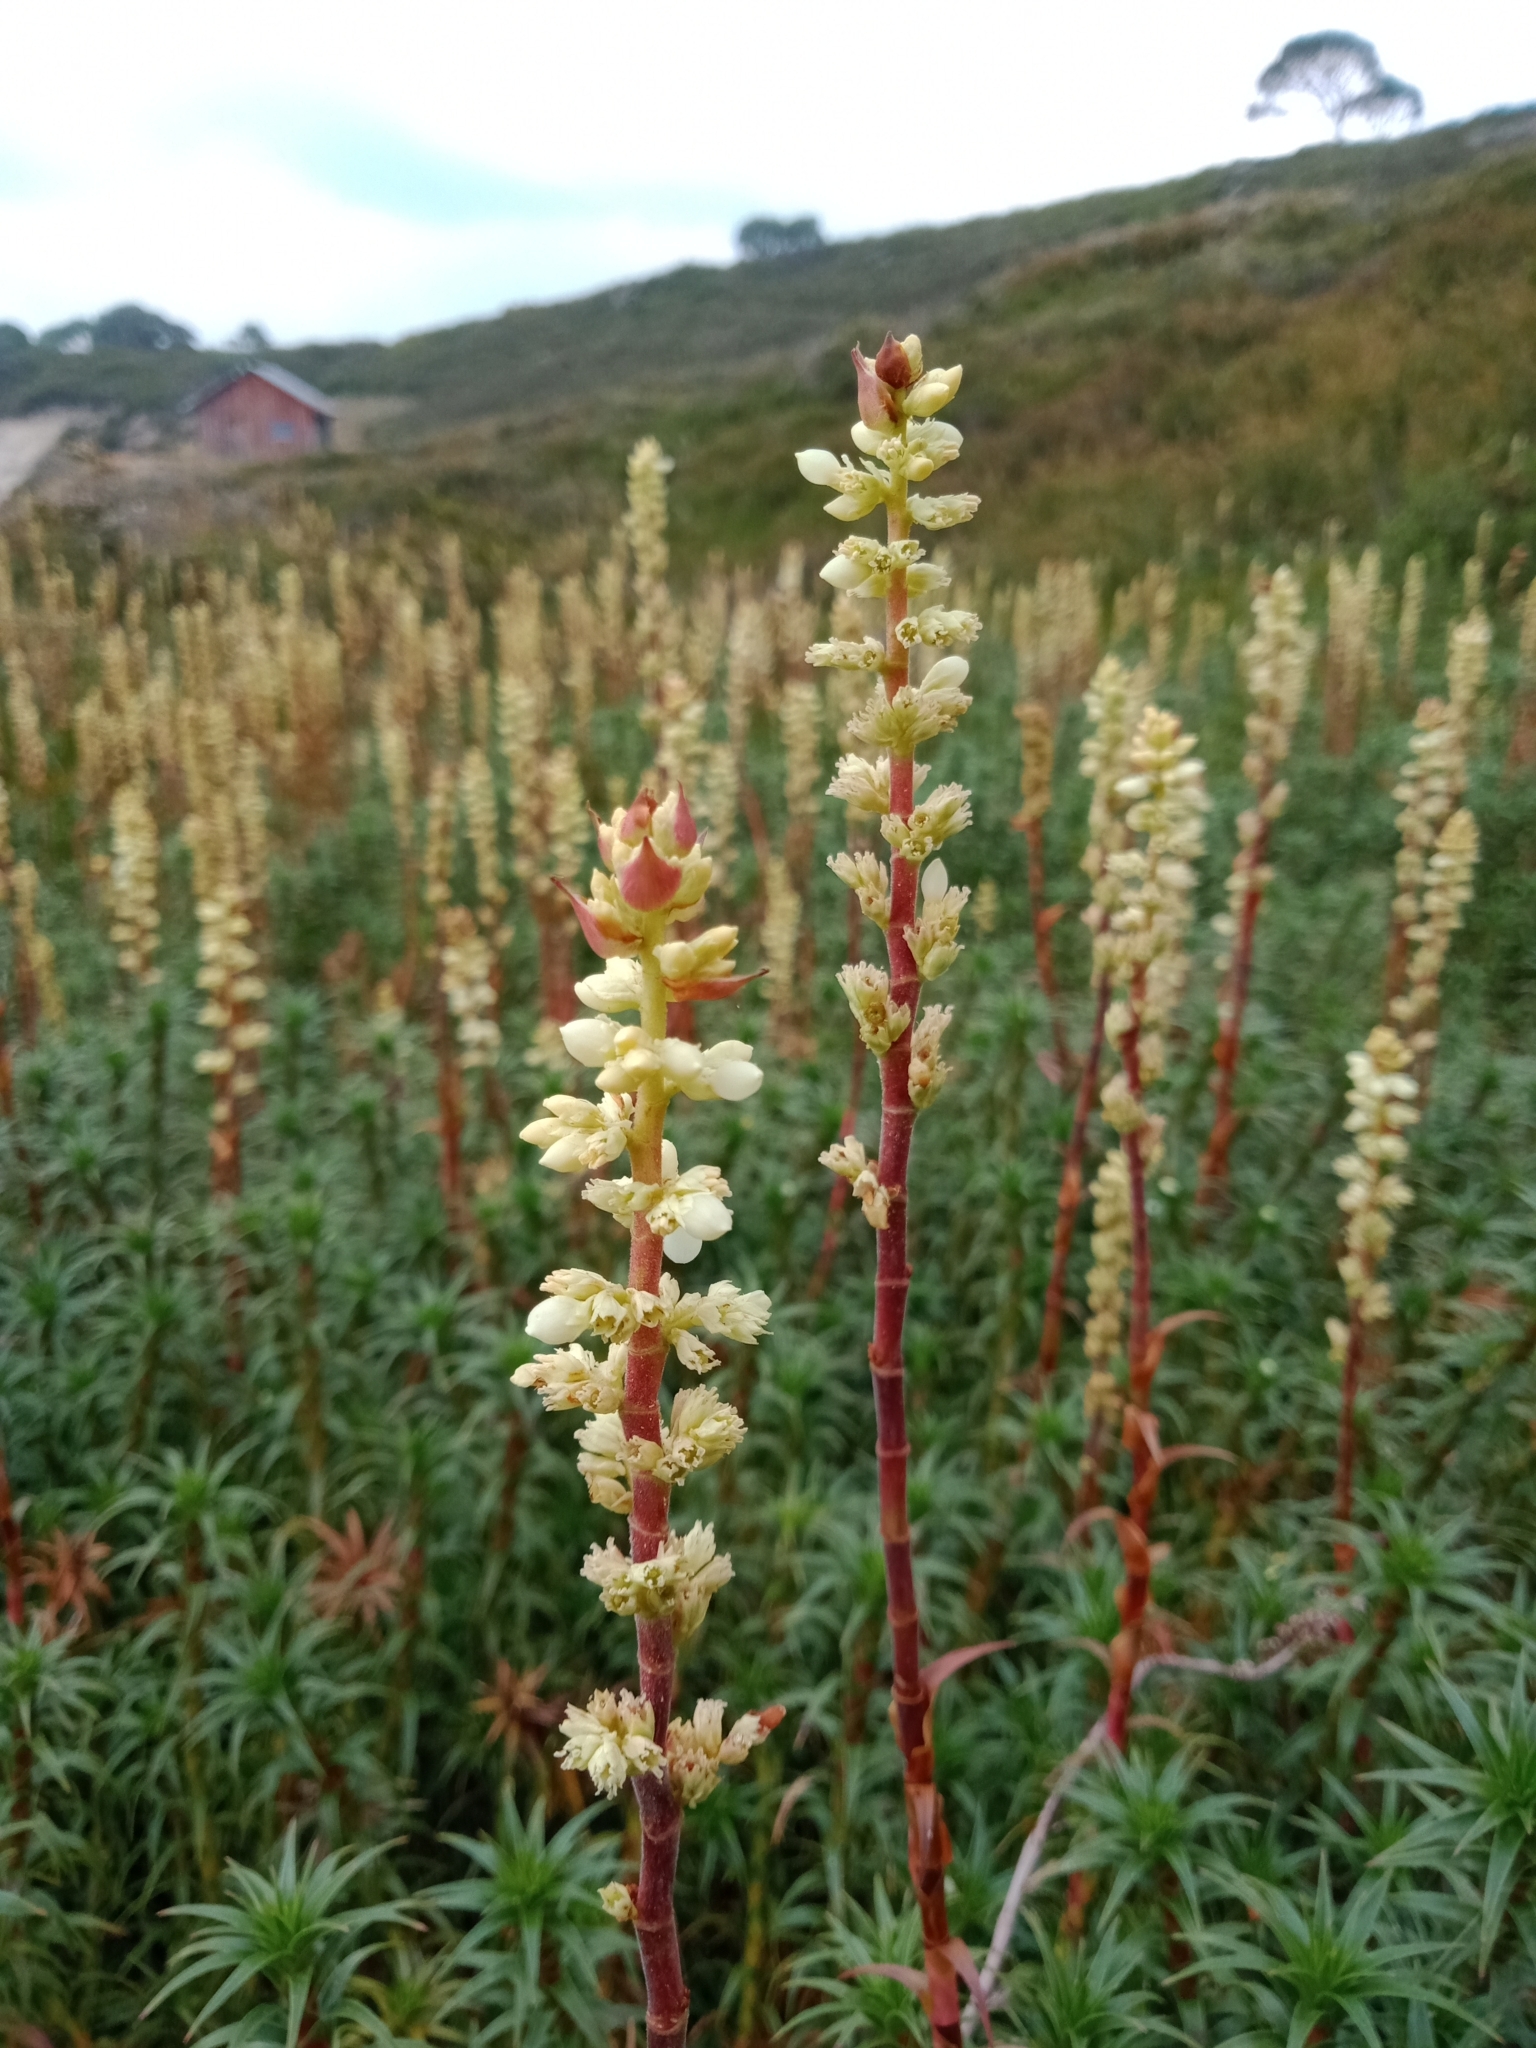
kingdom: Plantae
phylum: Tracheophyta
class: Magnoliopsida
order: Ericales
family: Ericaceae
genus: Dracophyllum
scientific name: Dracophyllum continentis
